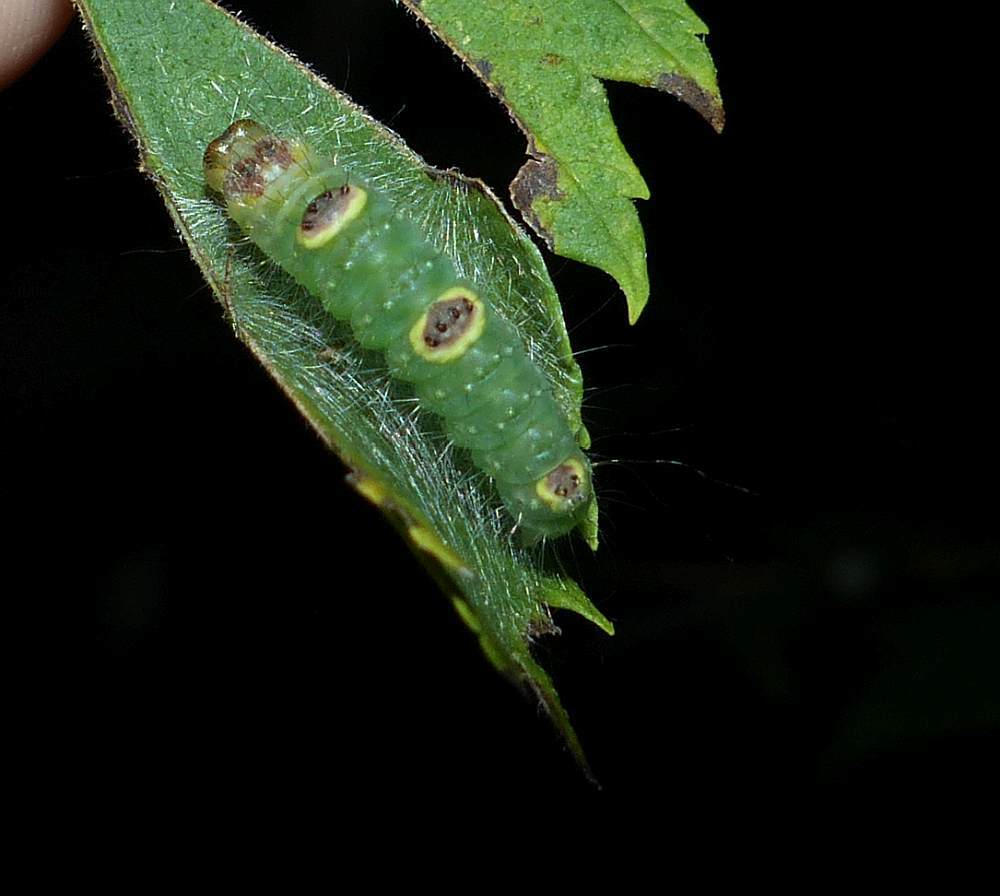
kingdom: Animalia
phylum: Arthropoda
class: Insecta
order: Lepidoptera
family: Noctuidae
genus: Acronicta
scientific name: Acronicta morula
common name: Ochre dagger
